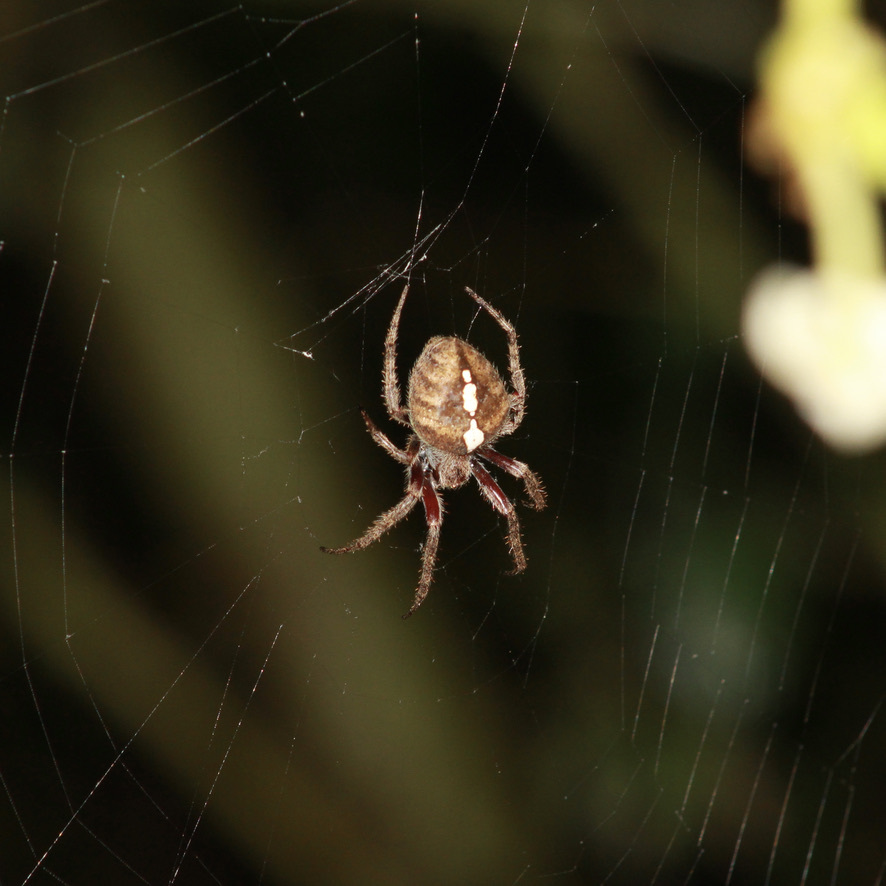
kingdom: Animalia
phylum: Arthropoda
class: Arachnida
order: Araneae
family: Araneidae
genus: Eriophora
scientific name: Eriophora edax
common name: Orb weavers
